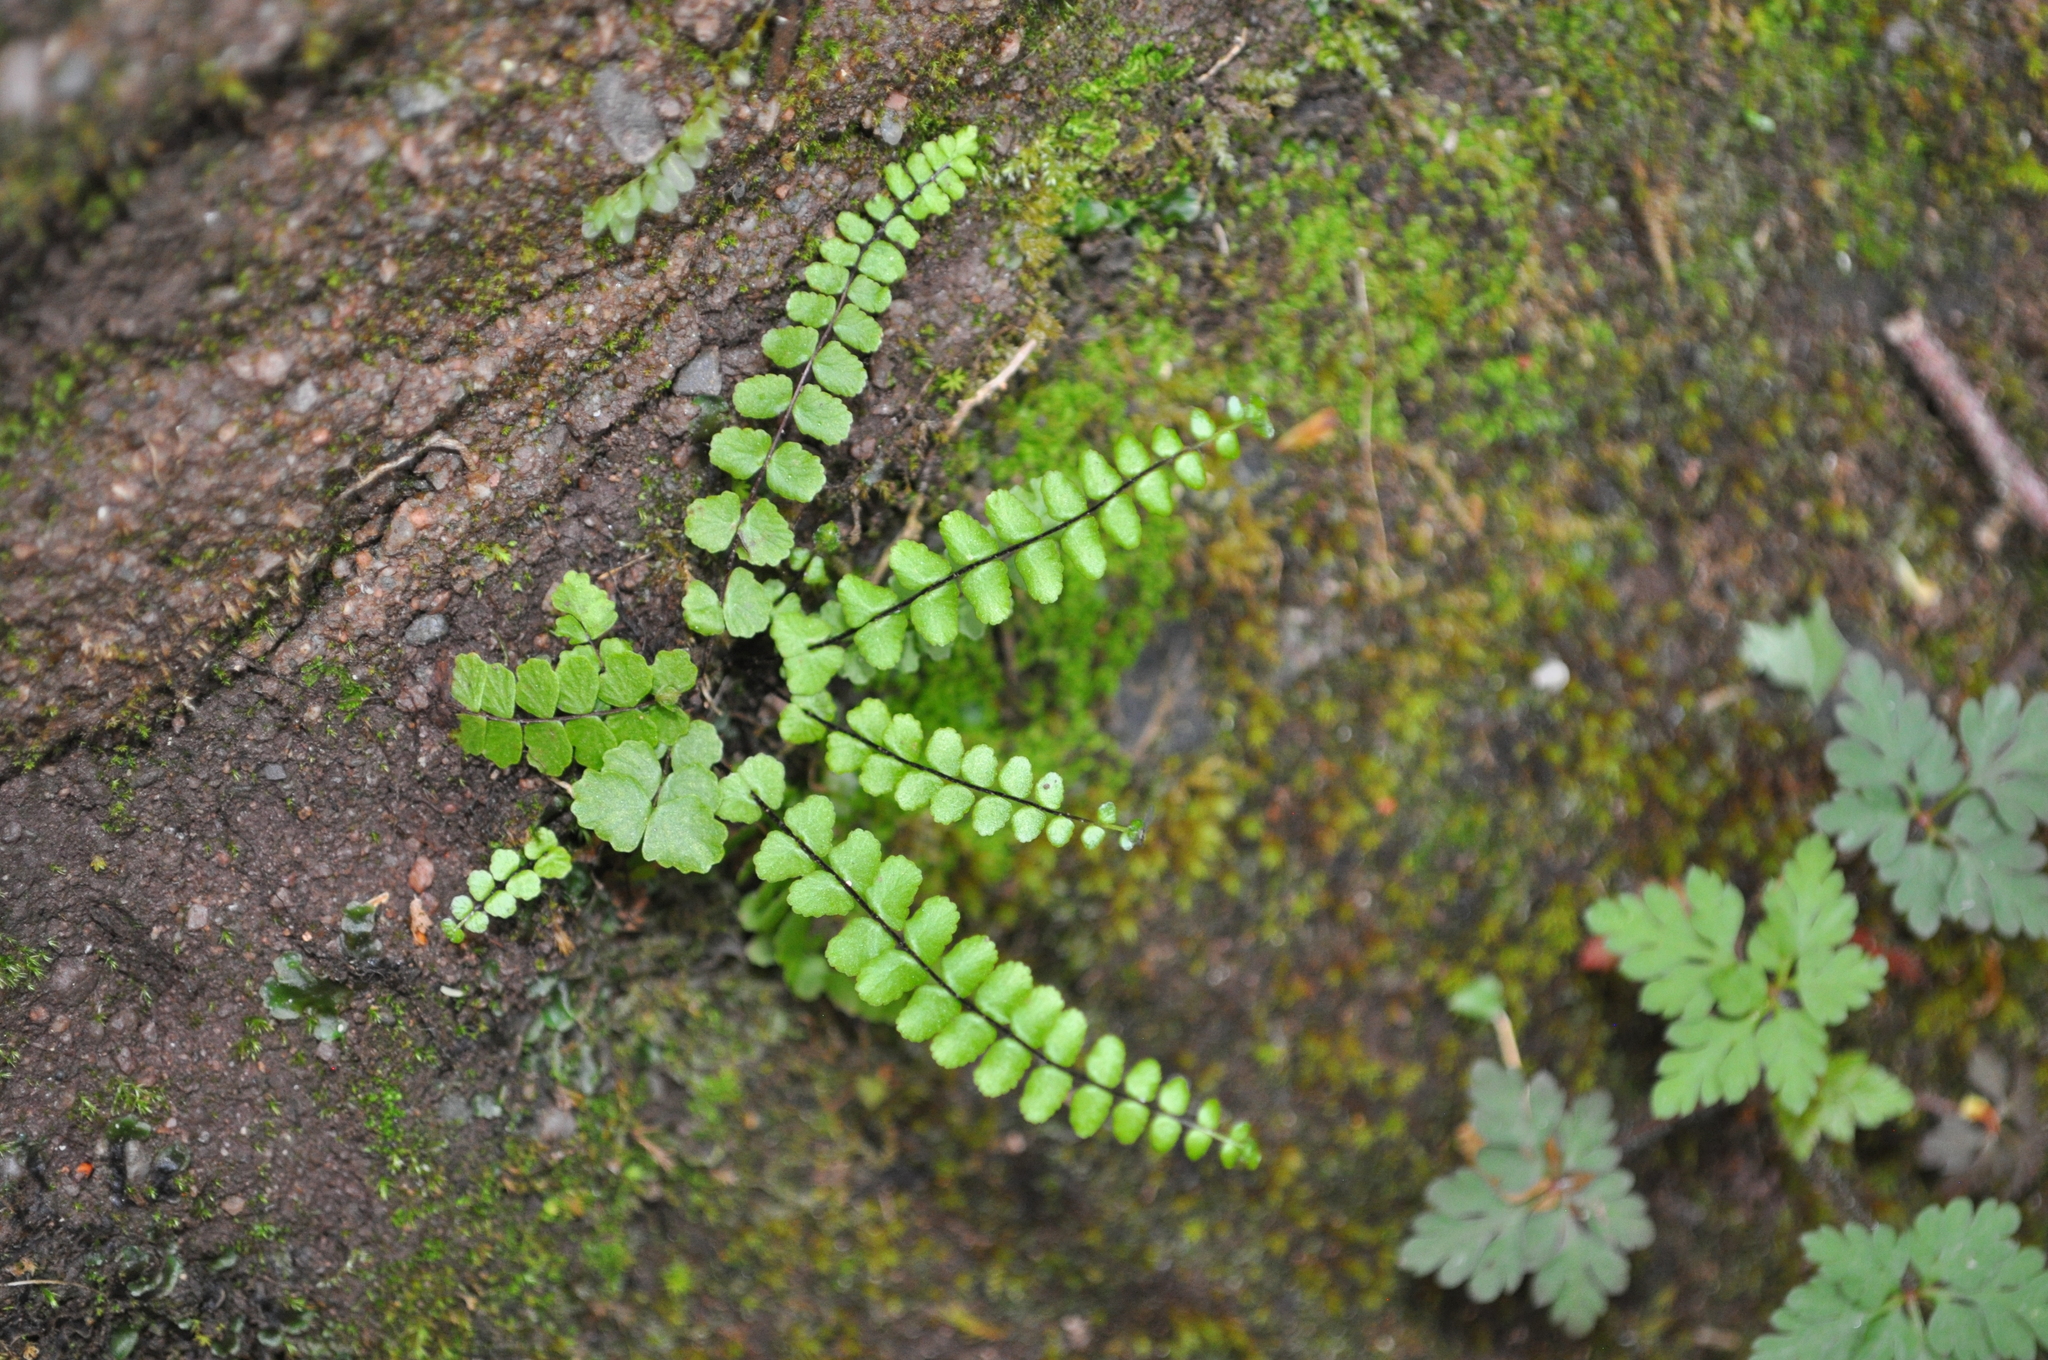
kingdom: Plantae
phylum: Tracheophyta
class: Polypodiopsida
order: Polypodiales
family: Aspleniaceae
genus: Asplenium
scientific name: Asplenium trichomanes
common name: Maidenhair spleenwort
